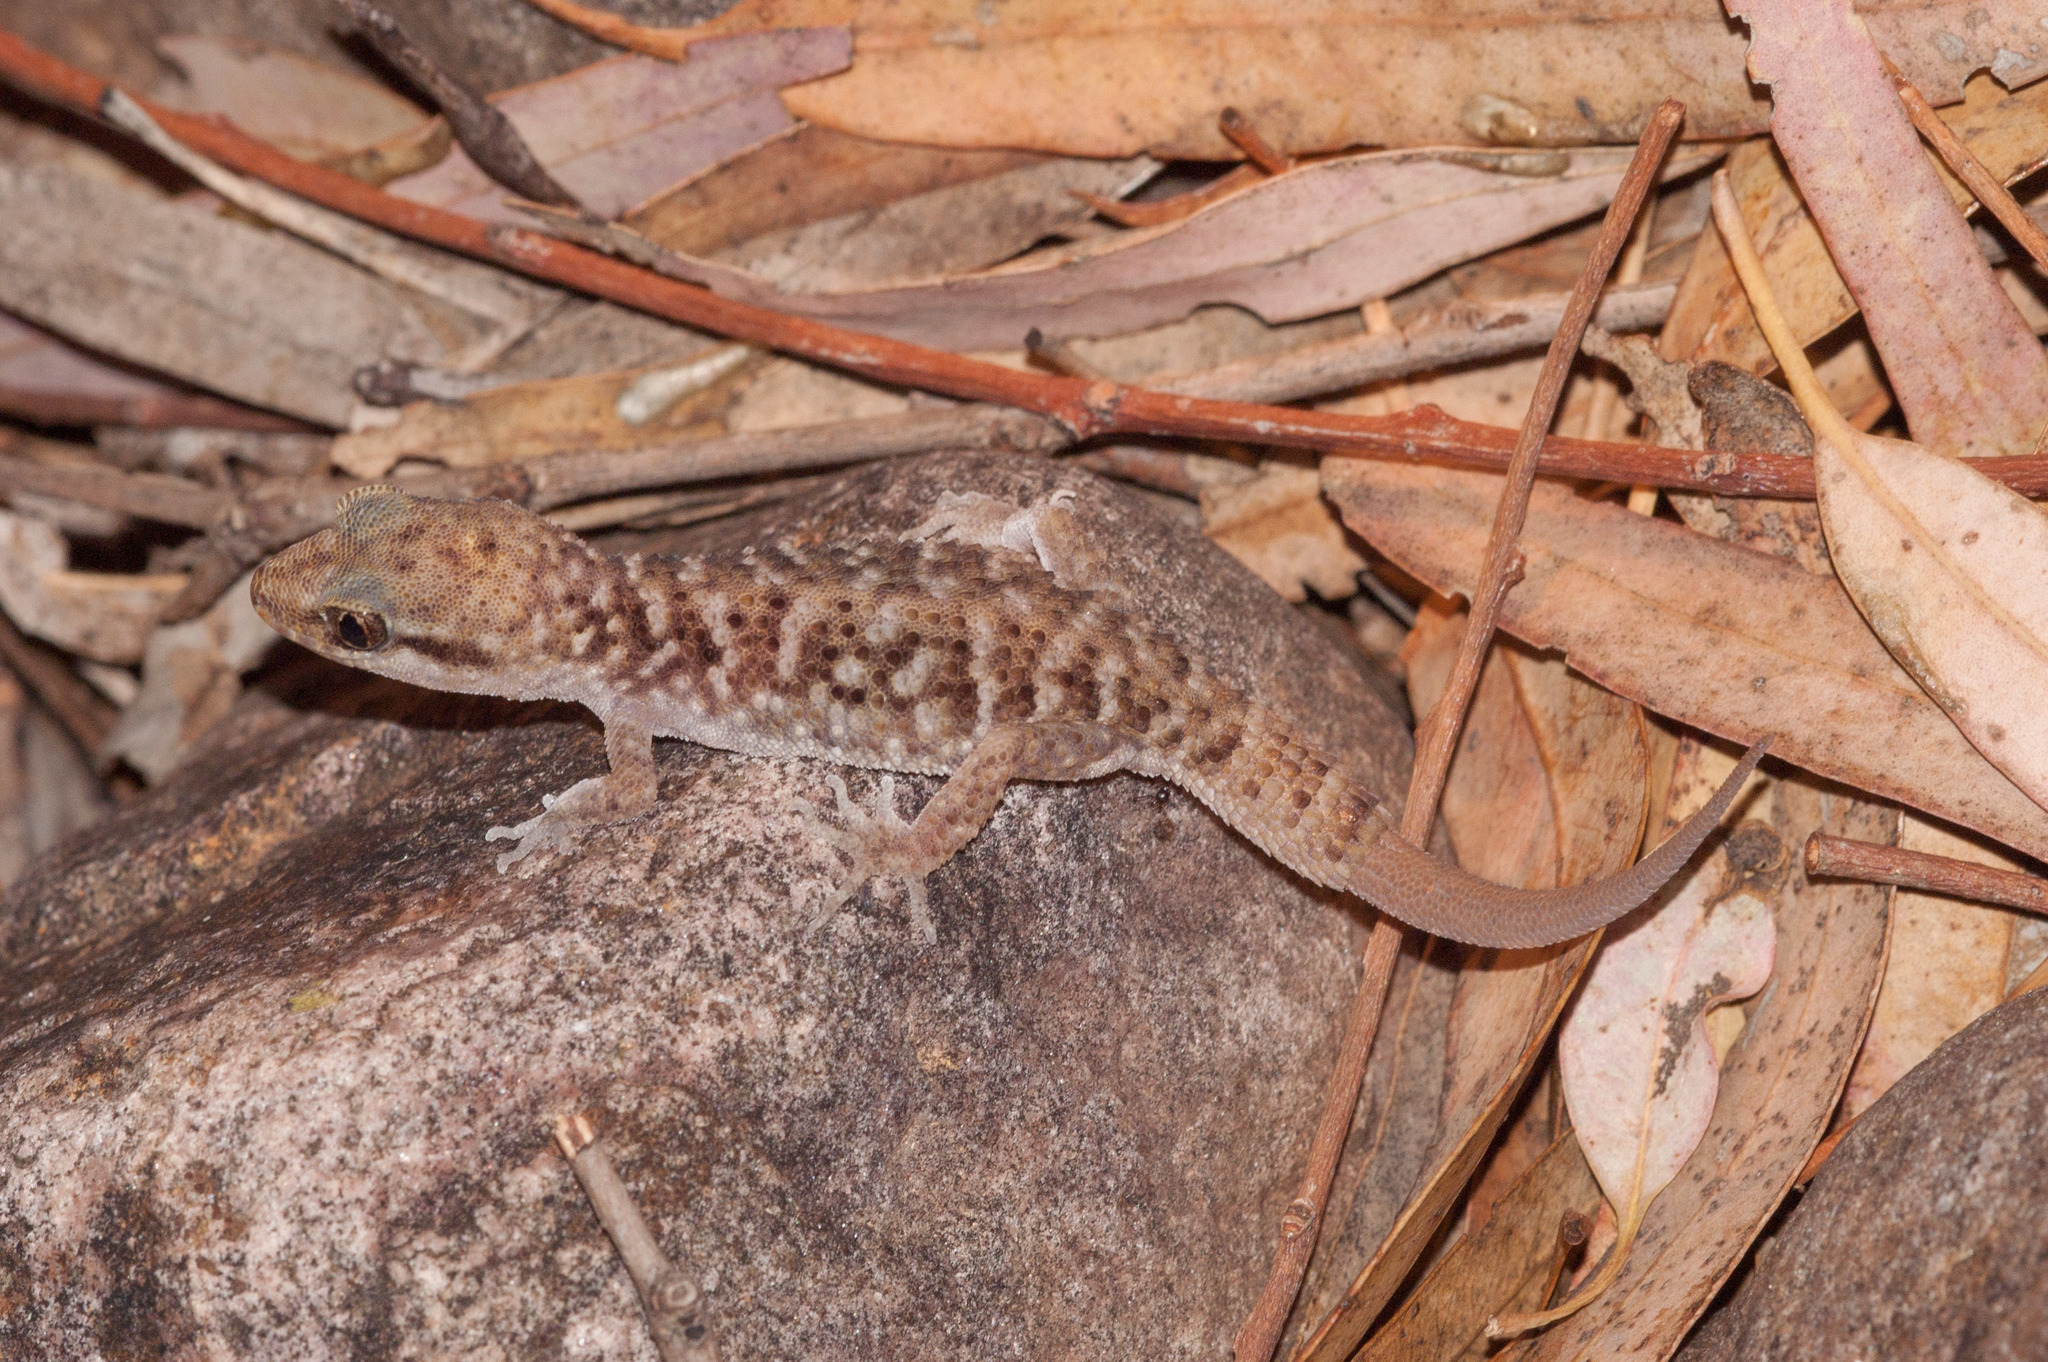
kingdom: Animalia
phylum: Chordata
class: Squamata
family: Gekkonidae
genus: Heteronotia
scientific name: Heteronotia binoei
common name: Bynoe's gecko
